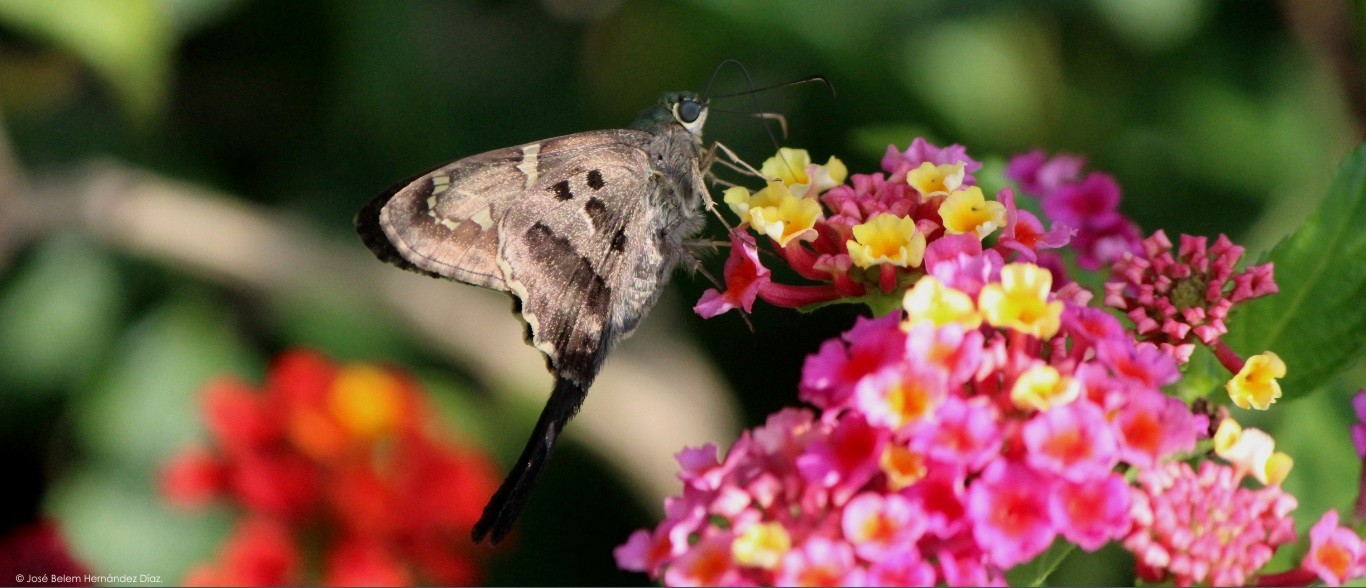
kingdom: Animalia
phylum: Arthropoda
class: Insecta
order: Lepidoptera
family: Hesperiidae
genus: Urbanus
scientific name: Urbanus proteus
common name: Long-tailed skipper
